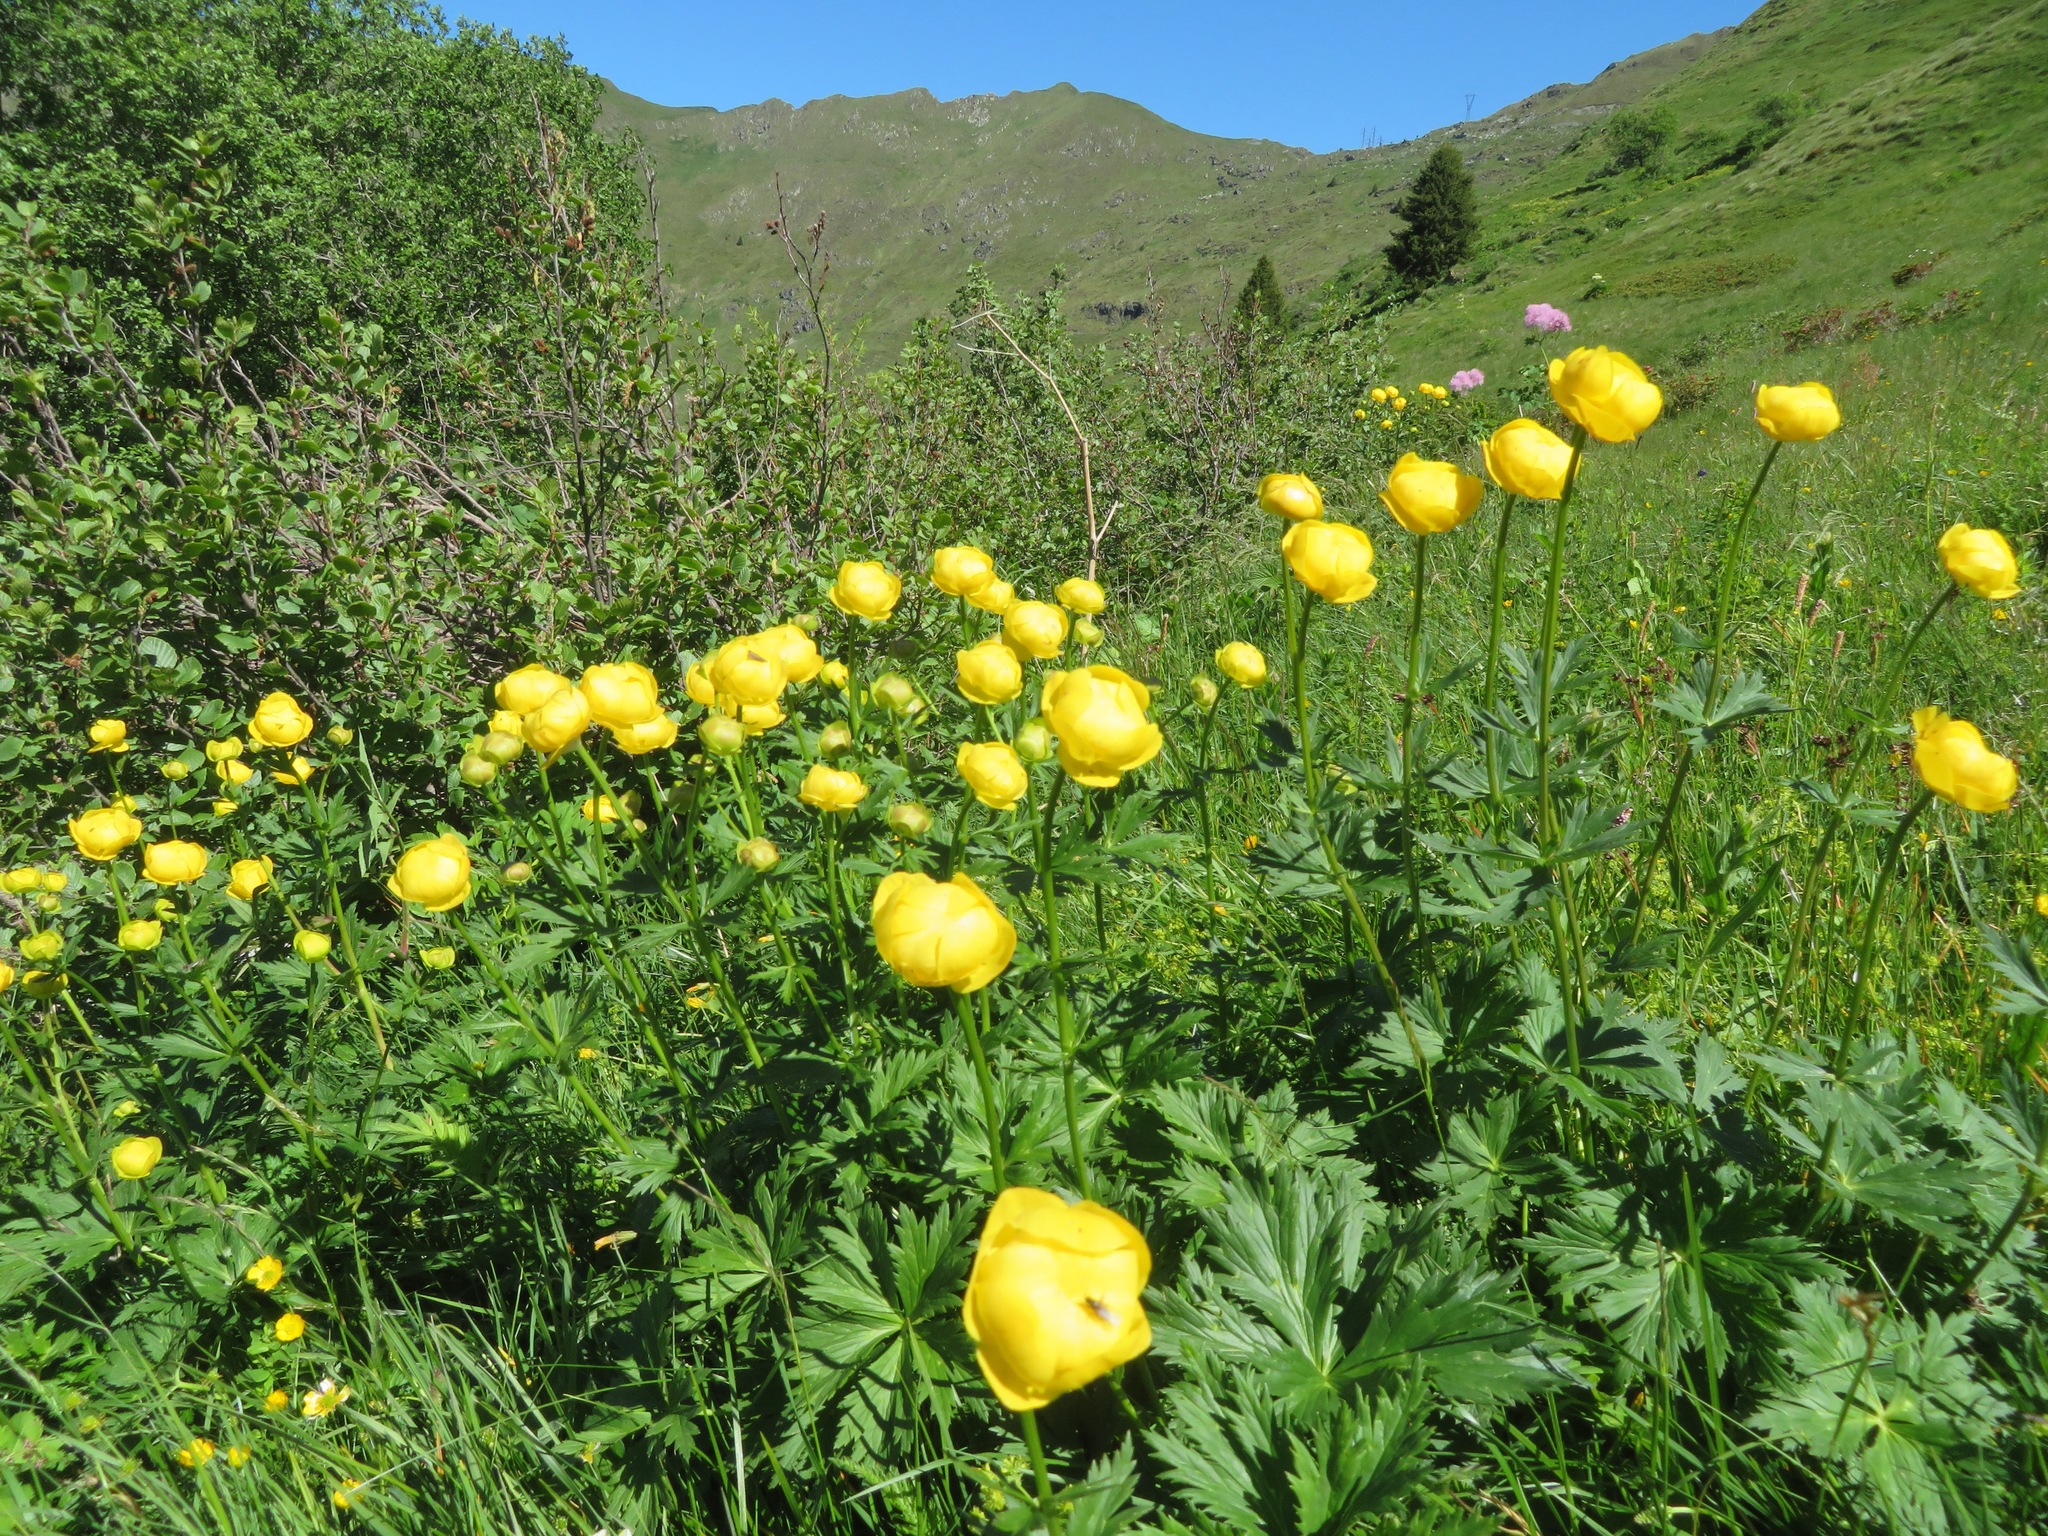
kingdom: Plantae
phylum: Tracheophyta
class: Magnoliopsida
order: Ranunculales
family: Ranunculaceae
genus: Trollius
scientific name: Trollius europaeus
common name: European globeflower
